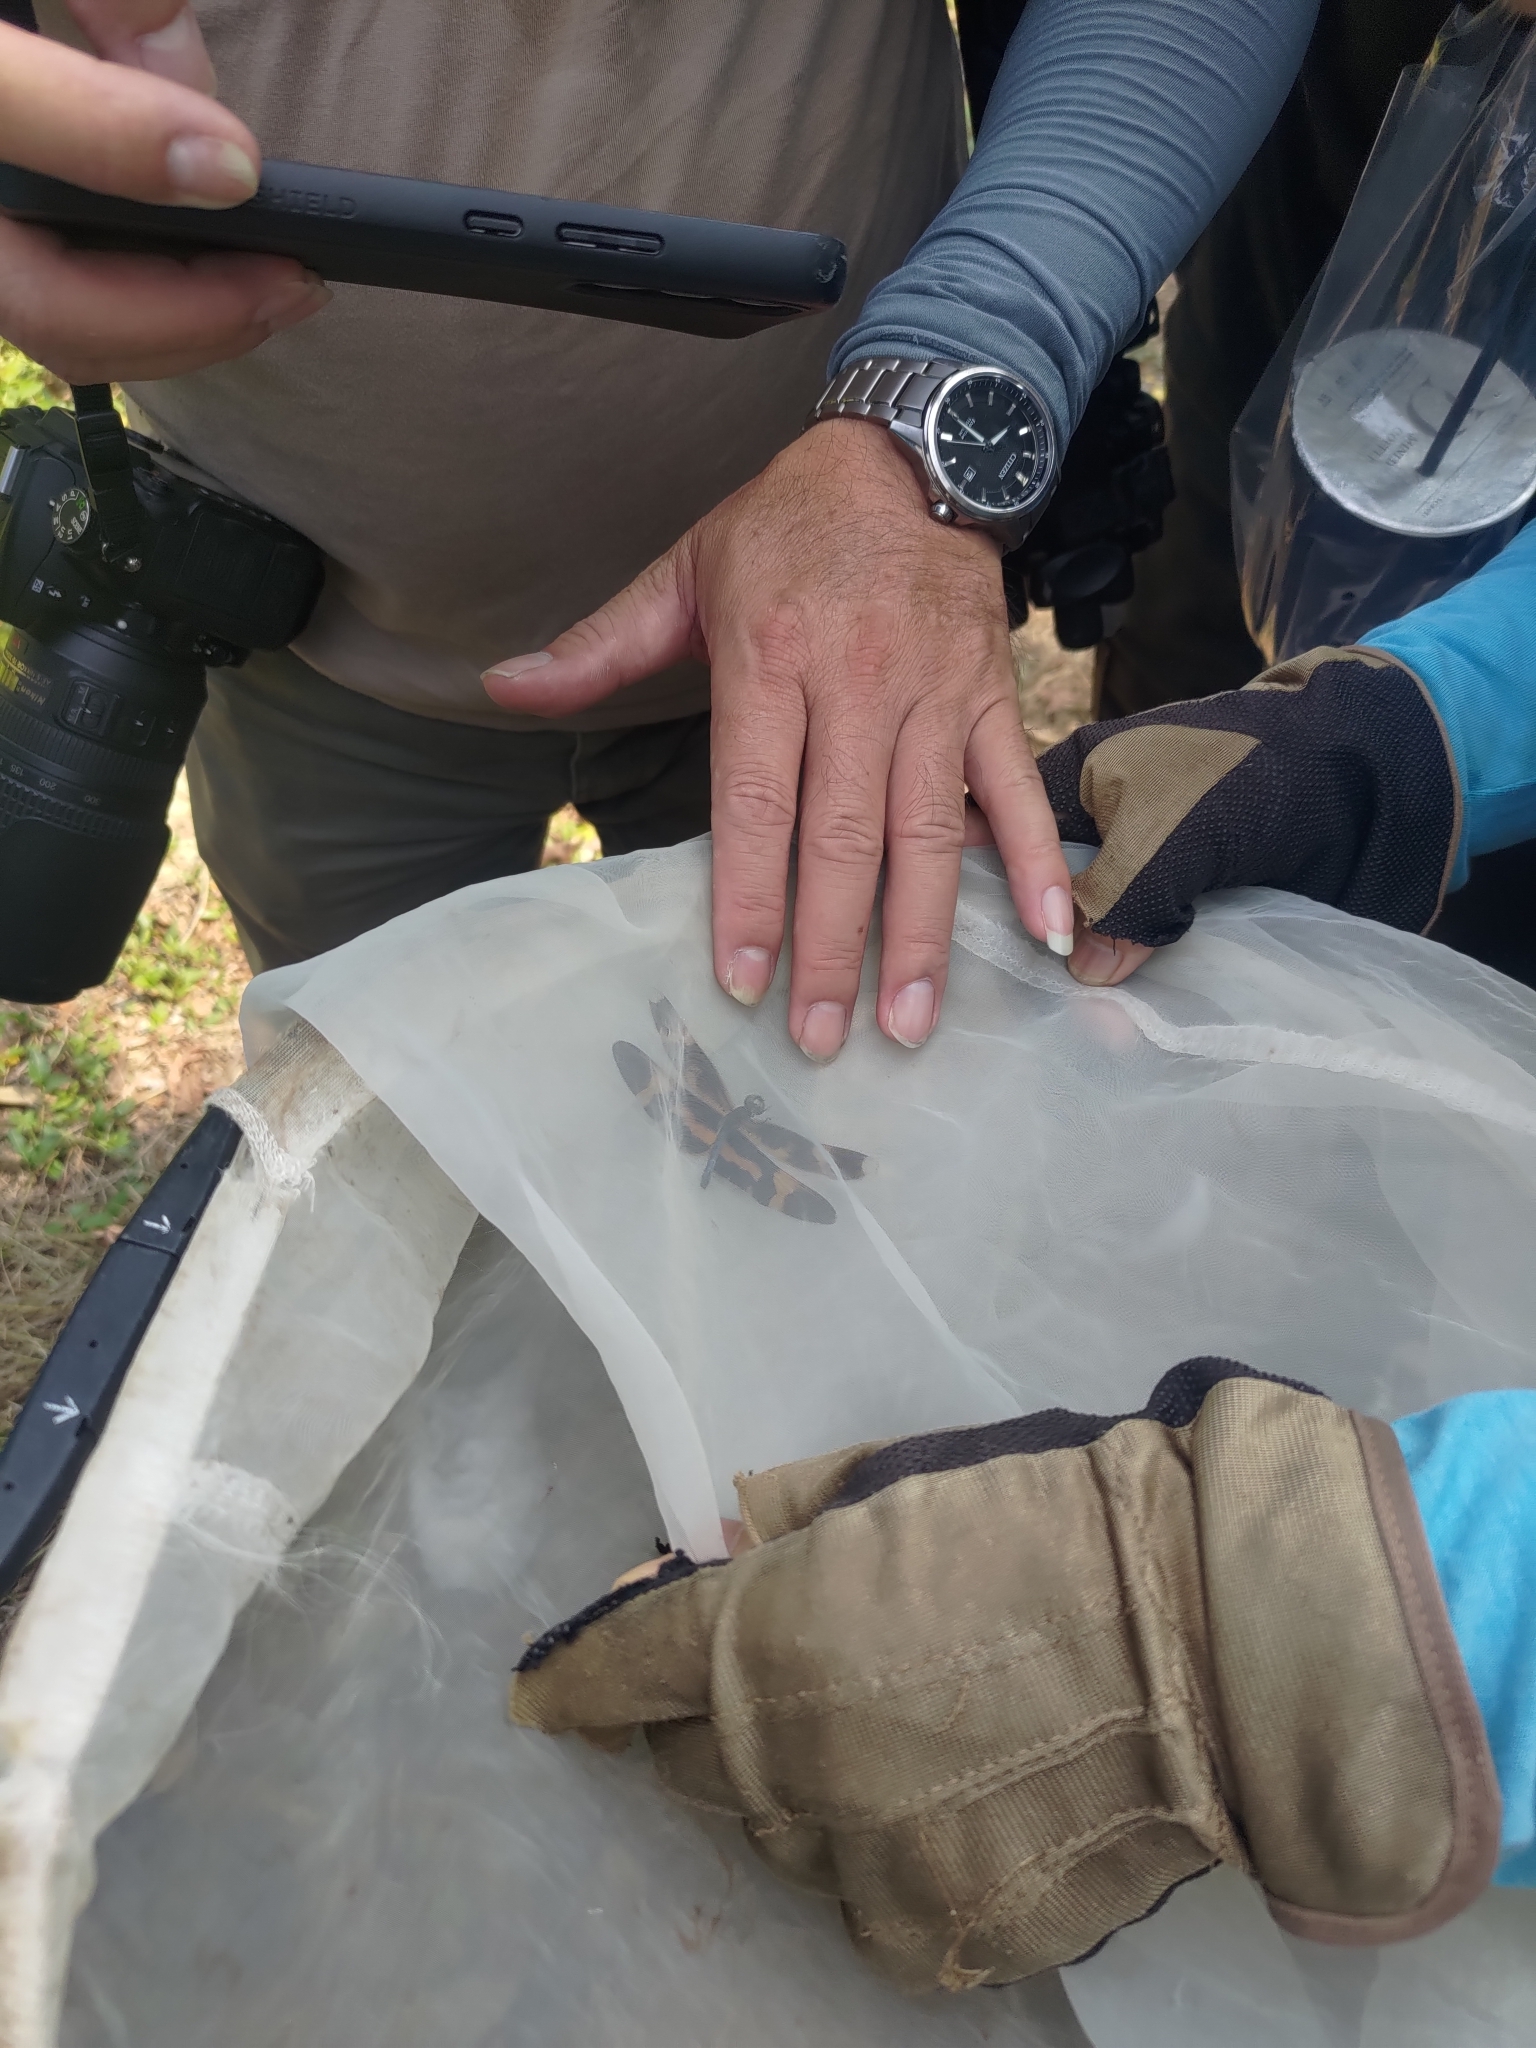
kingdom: Animalia
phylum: Arthropoda
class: Insecta
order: Odonata
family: Libellulidae
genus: Rhyothemis
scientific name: Rhyothemis variegata
